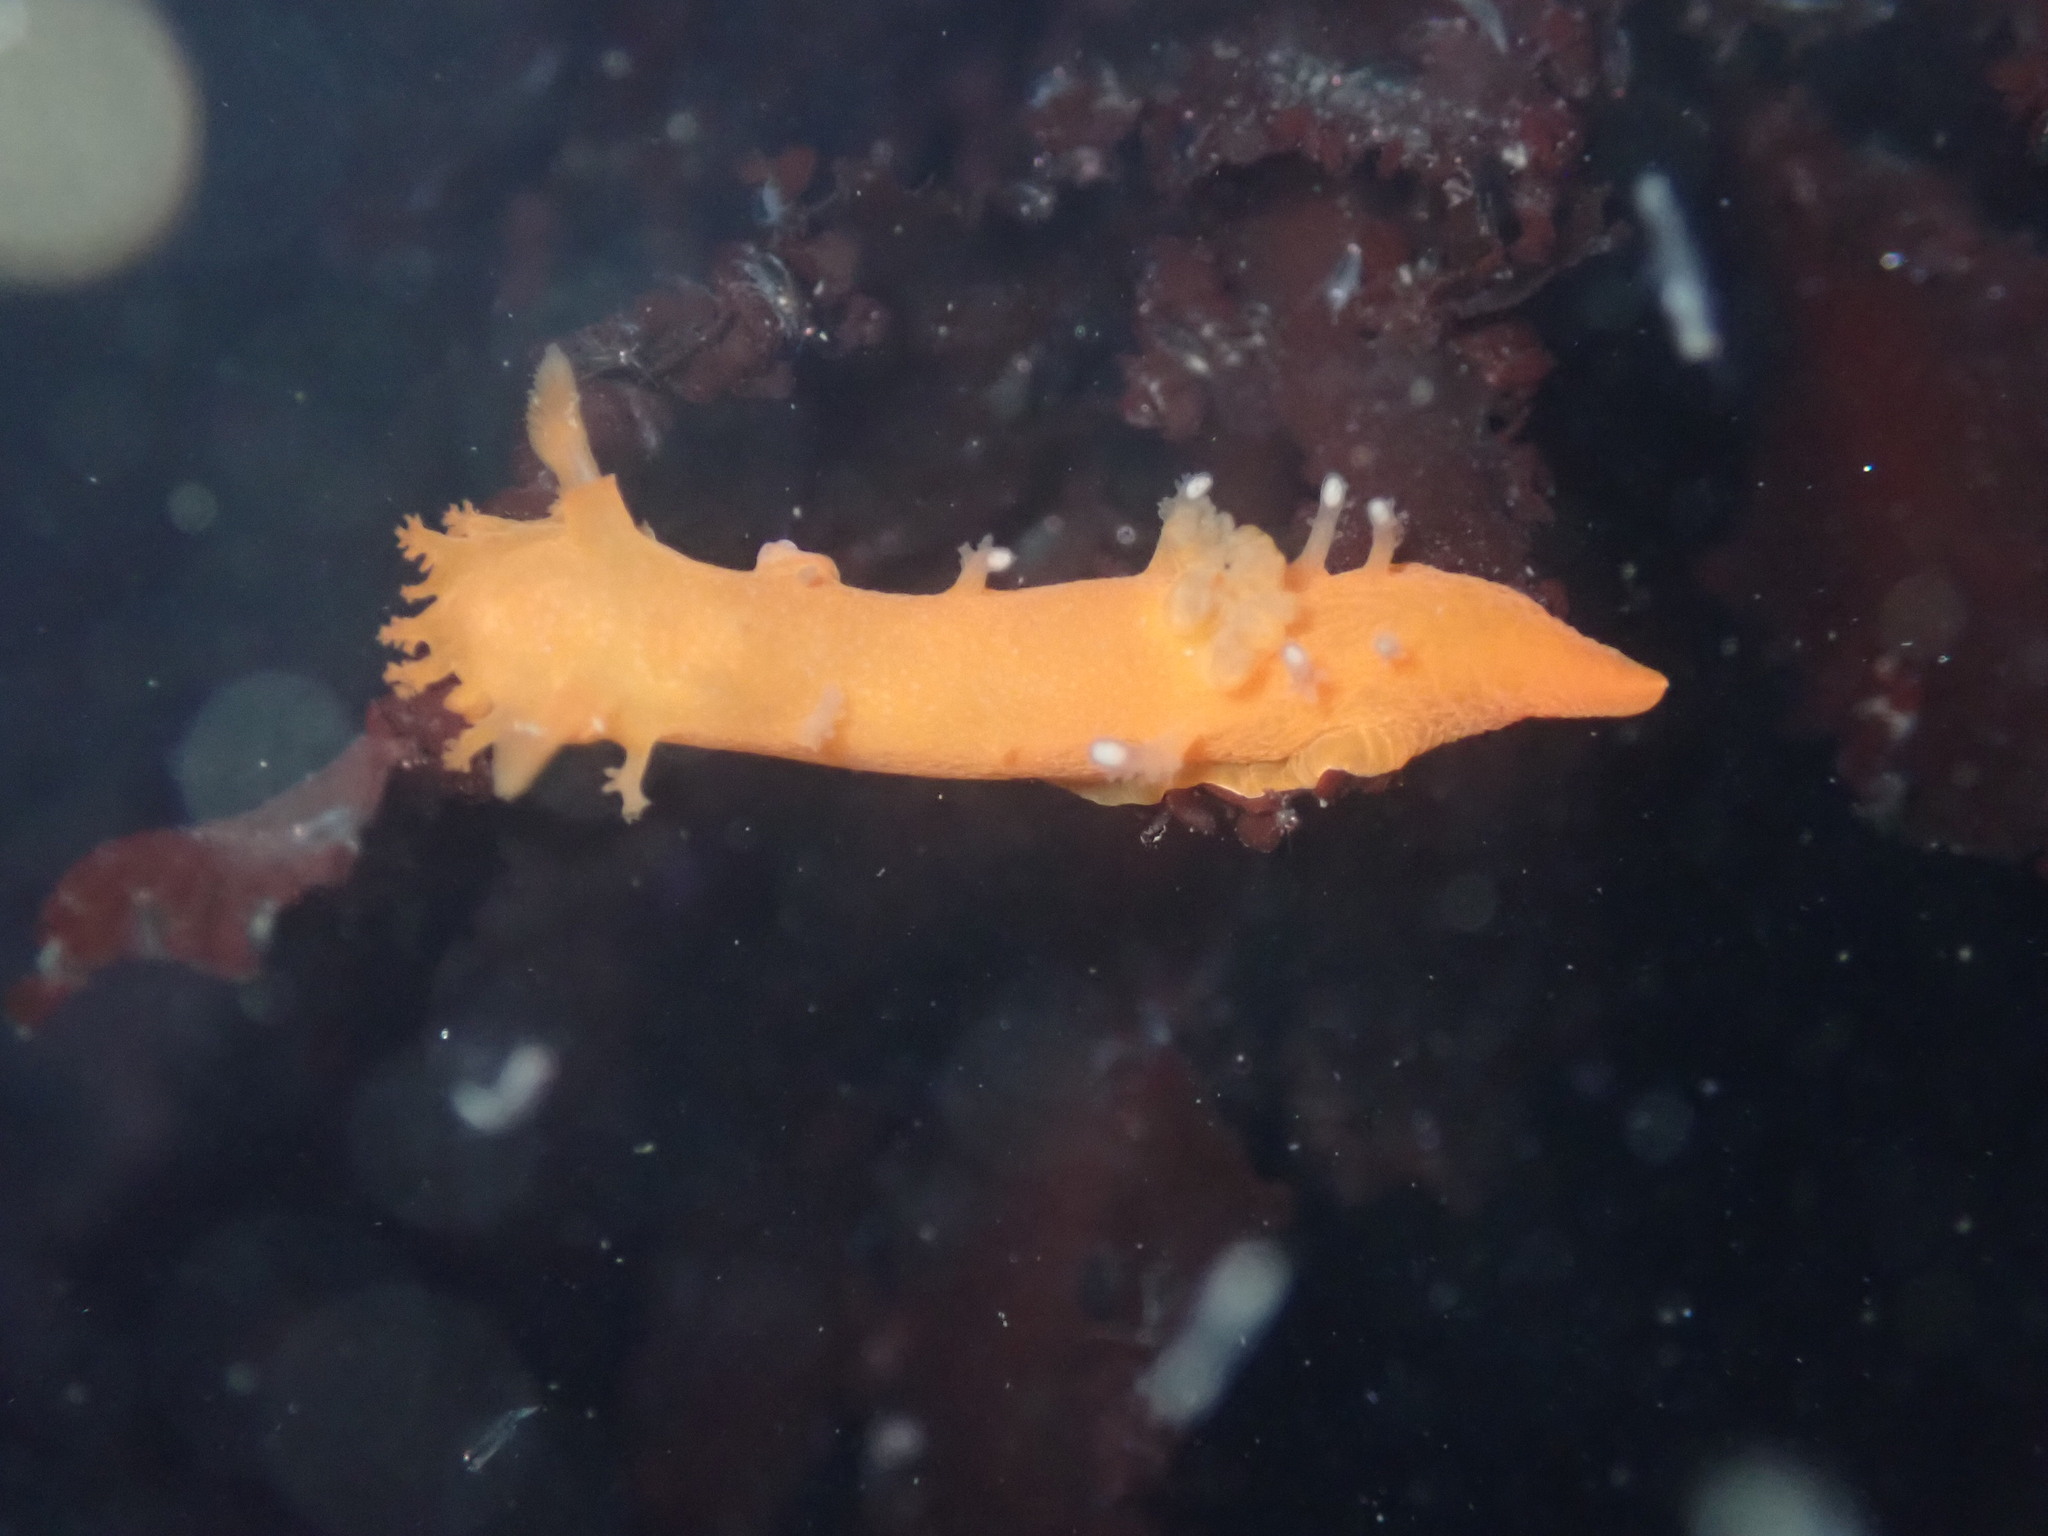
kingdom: Animalia
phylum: Mollusca
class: Gastropoda
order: Nudibranchia
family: Polyceridae
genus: Triopha
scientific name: Triopha maculata
